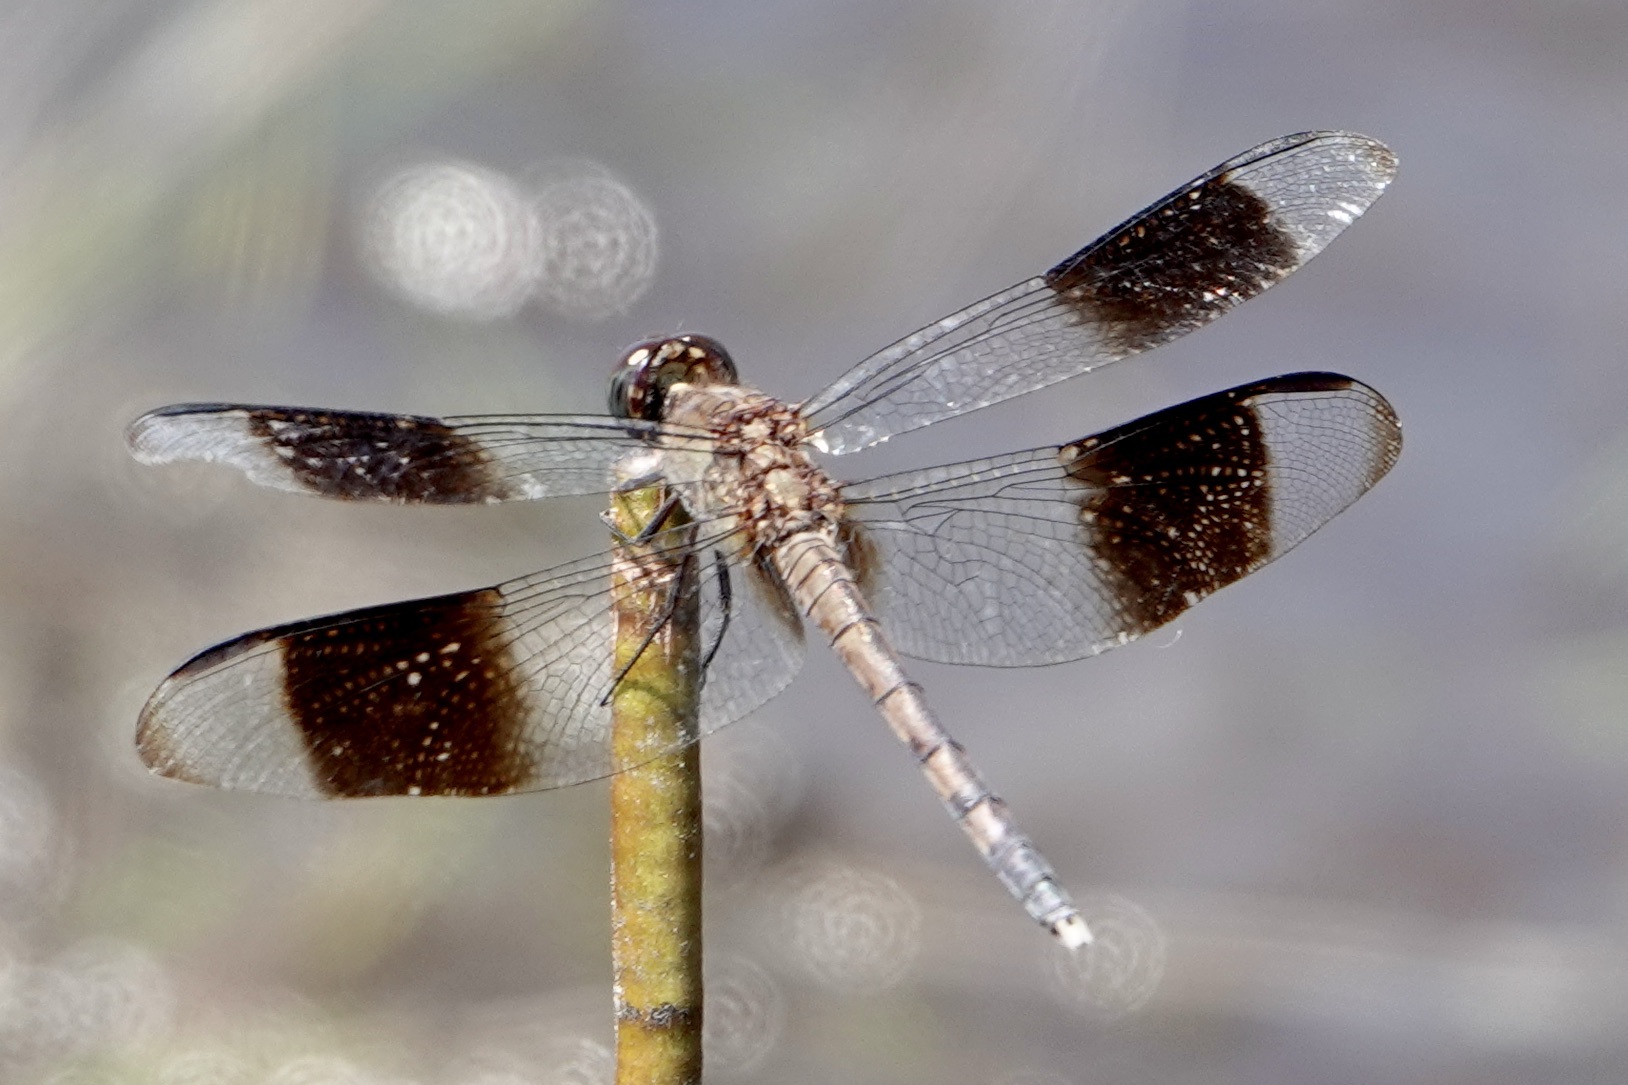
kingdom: Animalia
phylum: Arthropoda
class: Insecta
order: Odonata
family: Libellulidae
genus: Erythrodiplax
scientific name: Erythrodiplax umbrata
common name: Band-winged dragonlet
